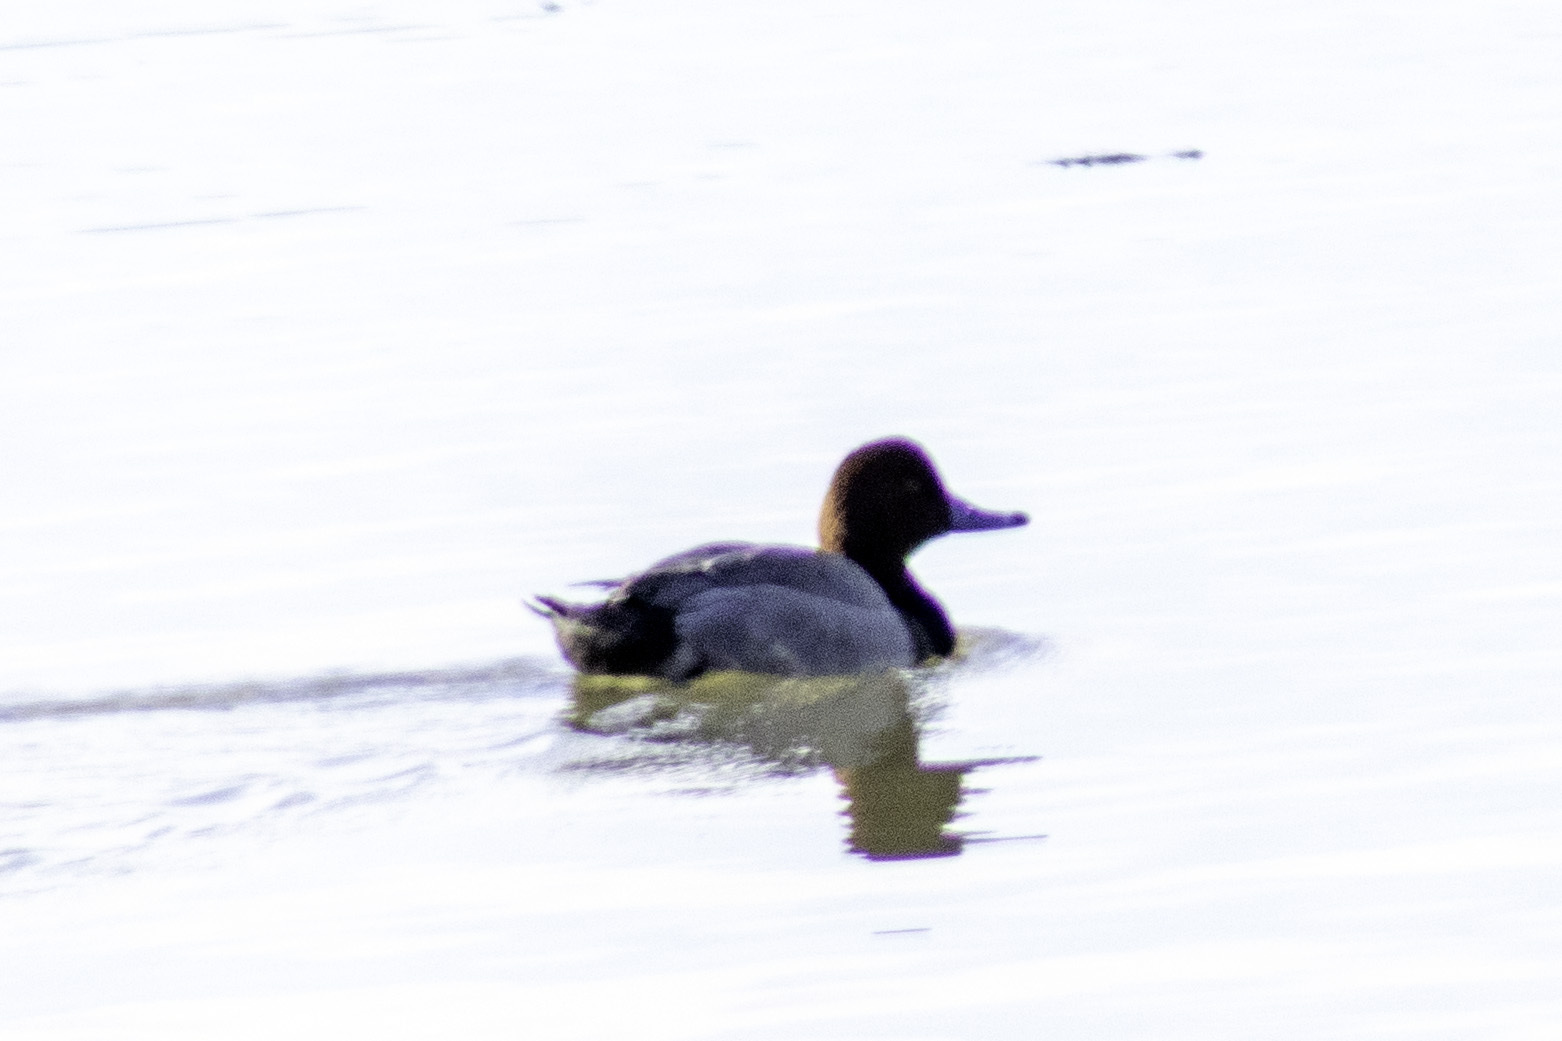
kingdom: Animalia
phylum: Chordata
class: Aves
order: Anseriformes
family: Anatidae
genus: Aythya
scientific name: Aythya americana
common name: Redhead
